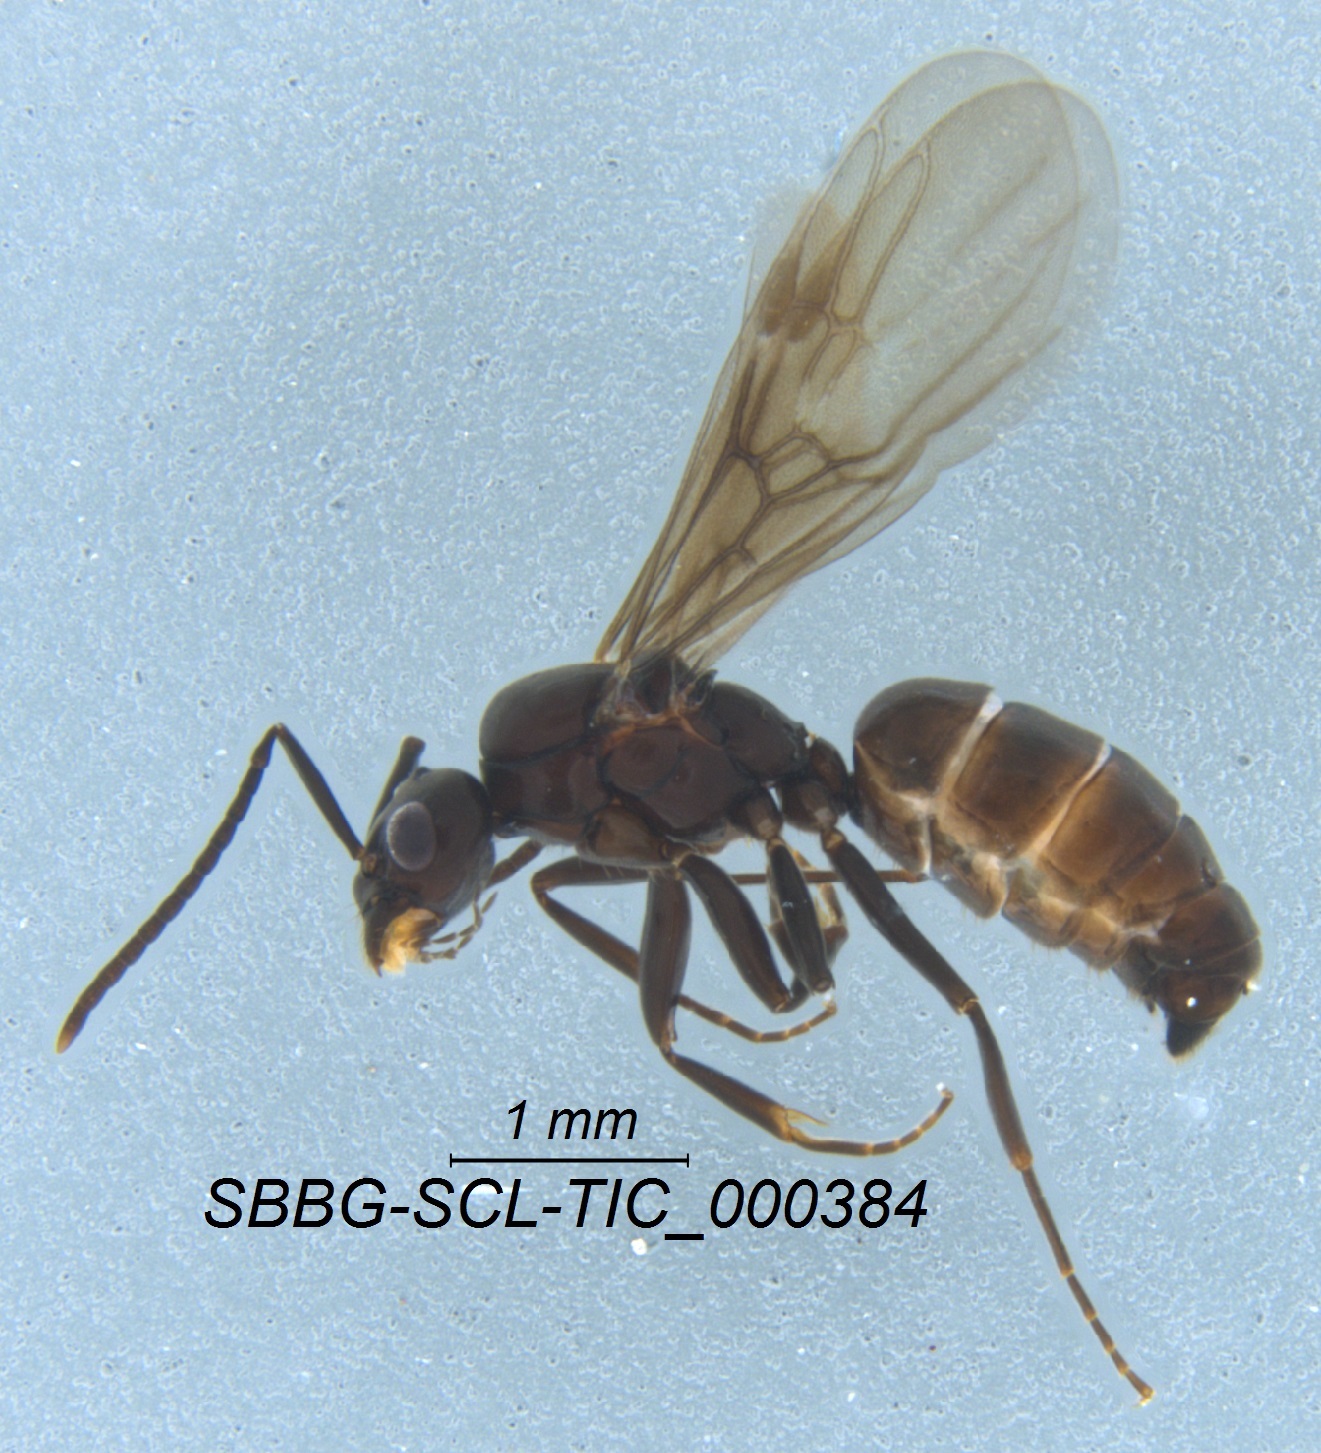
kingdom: Animalia
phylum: Arthropoda
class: Insecta
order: Hymenoptera
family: Formicidae
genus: Tapinoma
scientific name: Tapinoma sessile
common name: Odorous house ant
